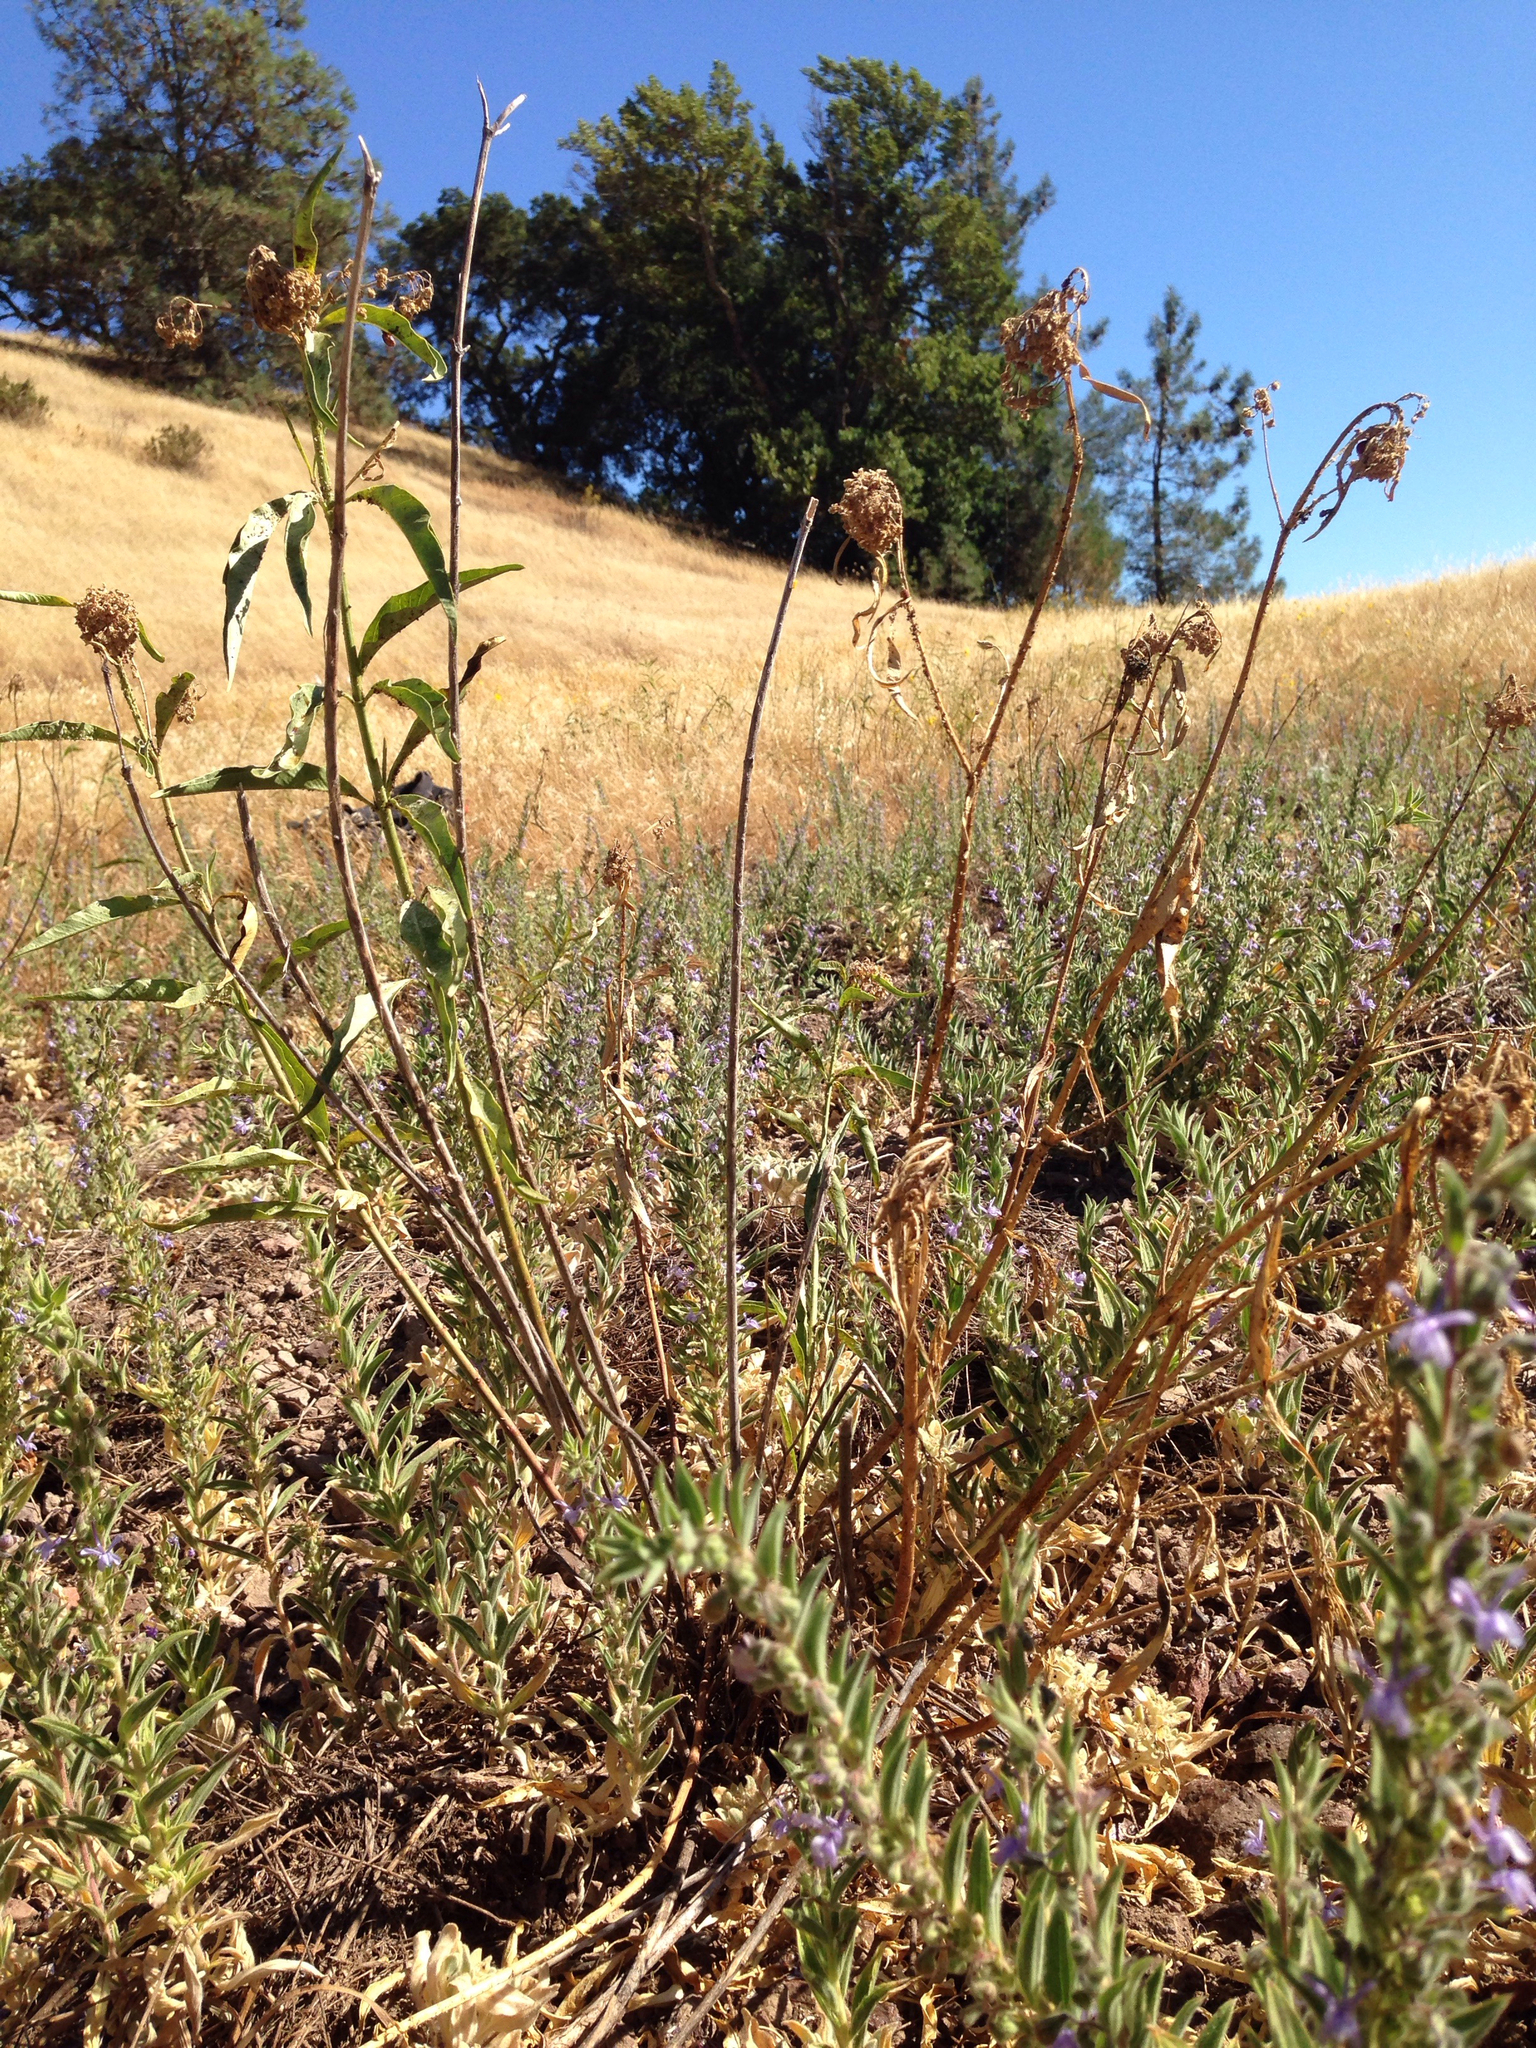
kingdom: Plantae
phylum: Tracheophyta
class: Magnoliopsida
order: Gentianales
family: Apocynaceae
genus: Asclepias
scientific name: Asclepias fascicularis
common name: Mexican milkweed
